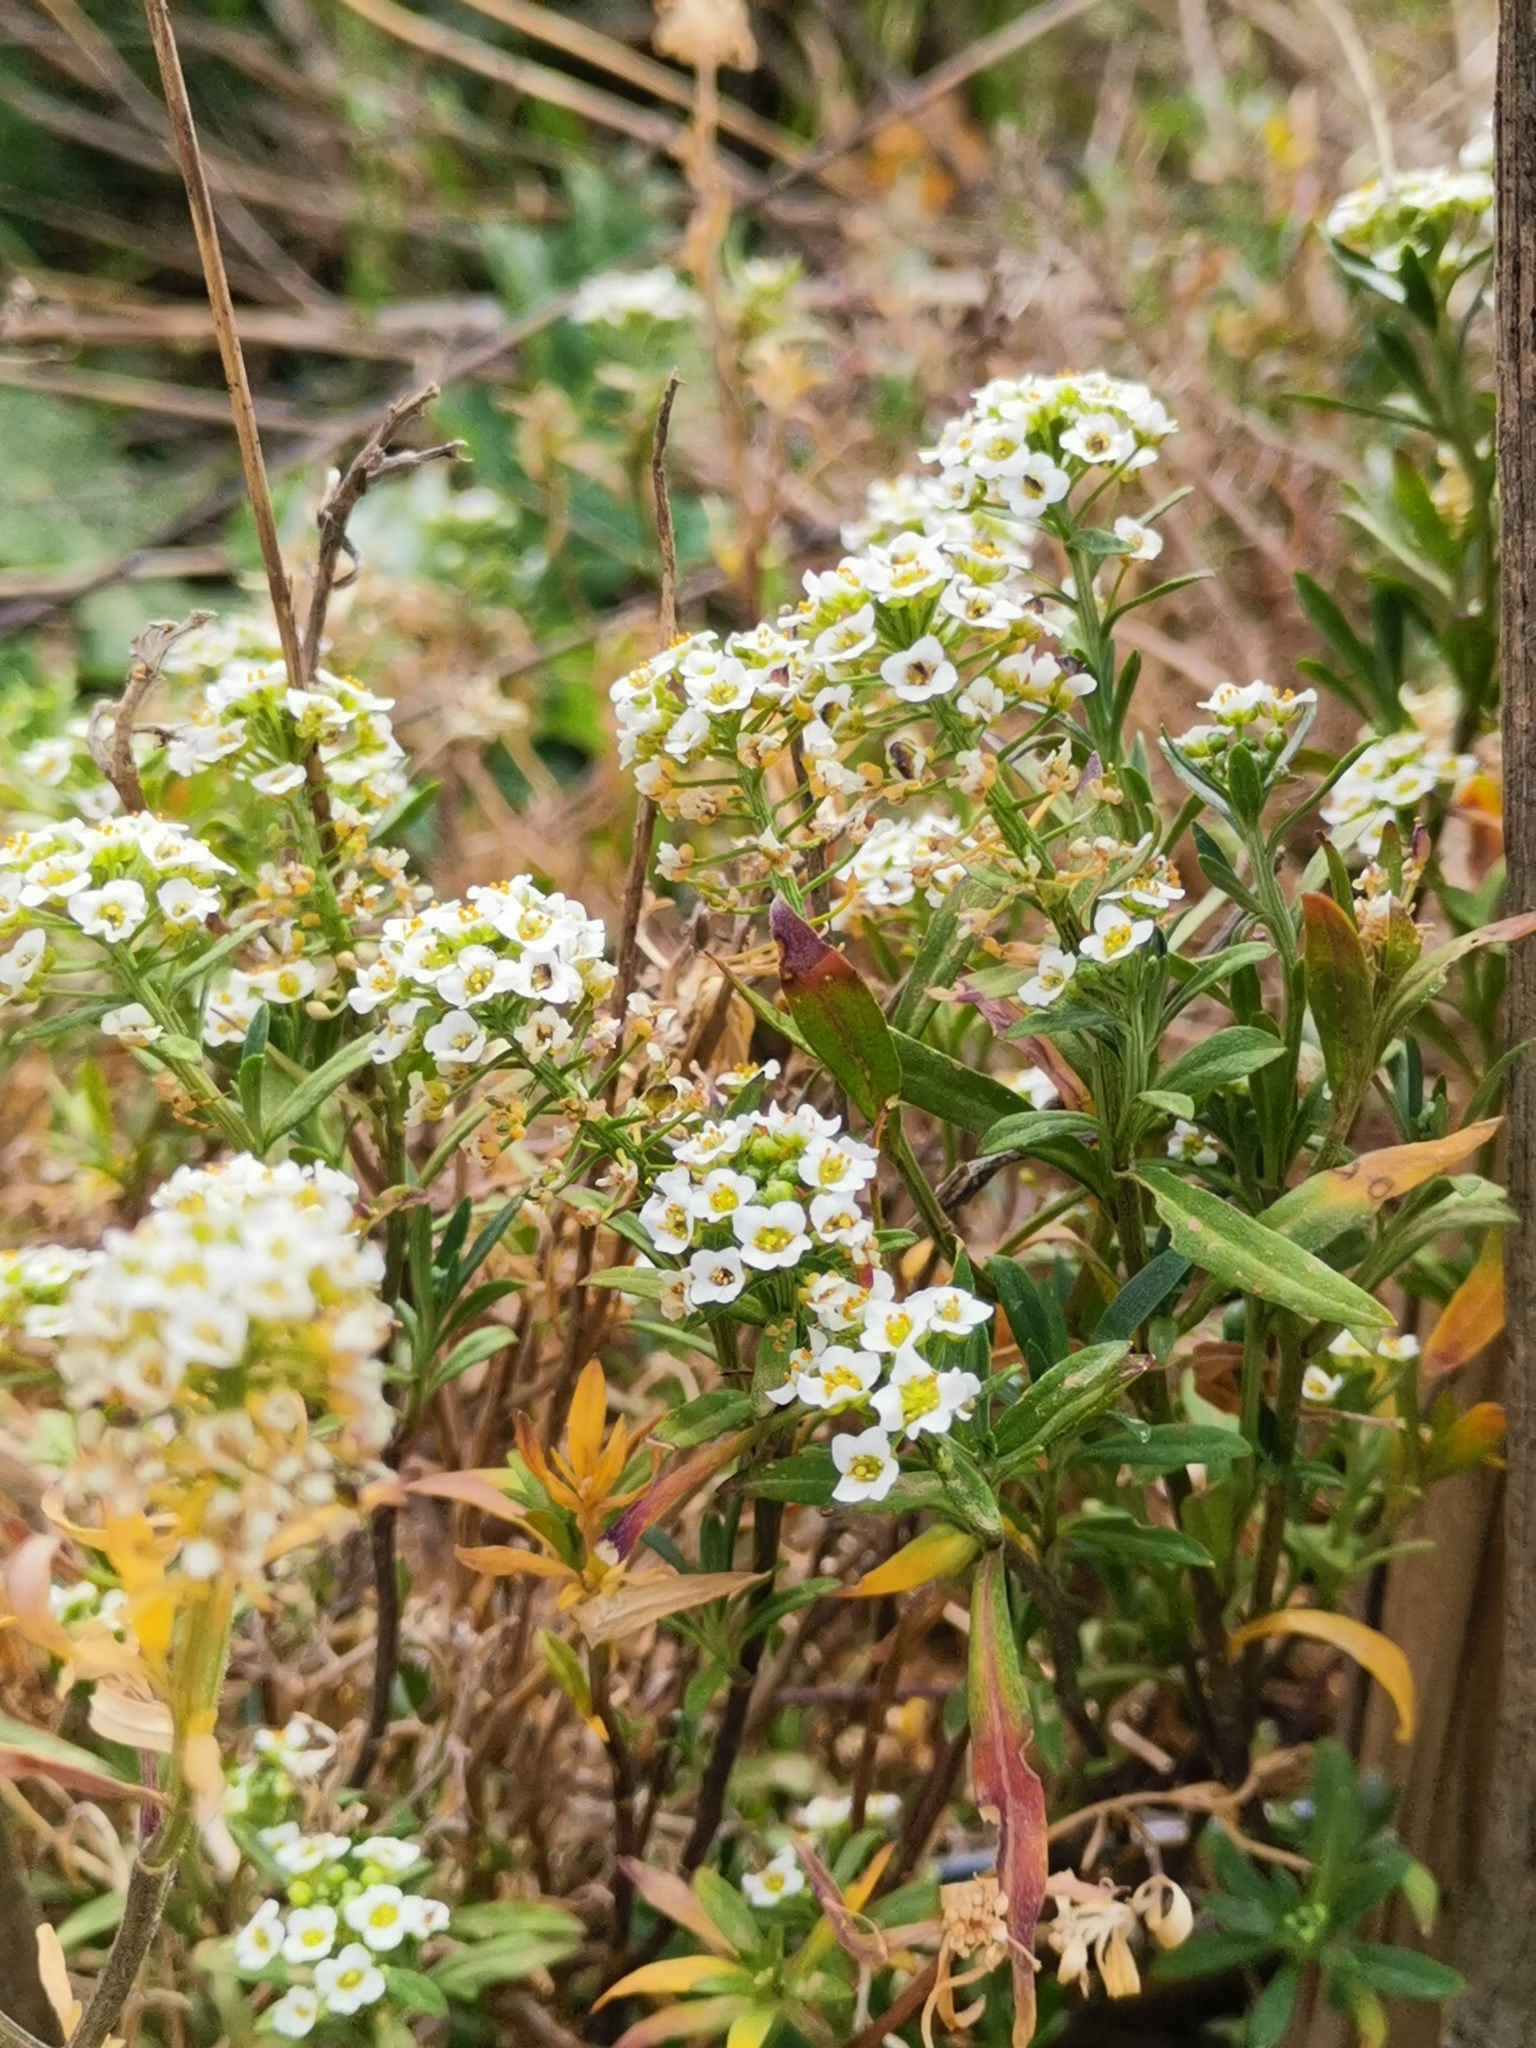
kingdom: Plantae
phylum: Tracheophyta
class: Magnoliopsida
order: Brassicales
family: Brassicaceae
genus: Lobularia
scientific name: Lobularia maritima
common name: Sweet alison
